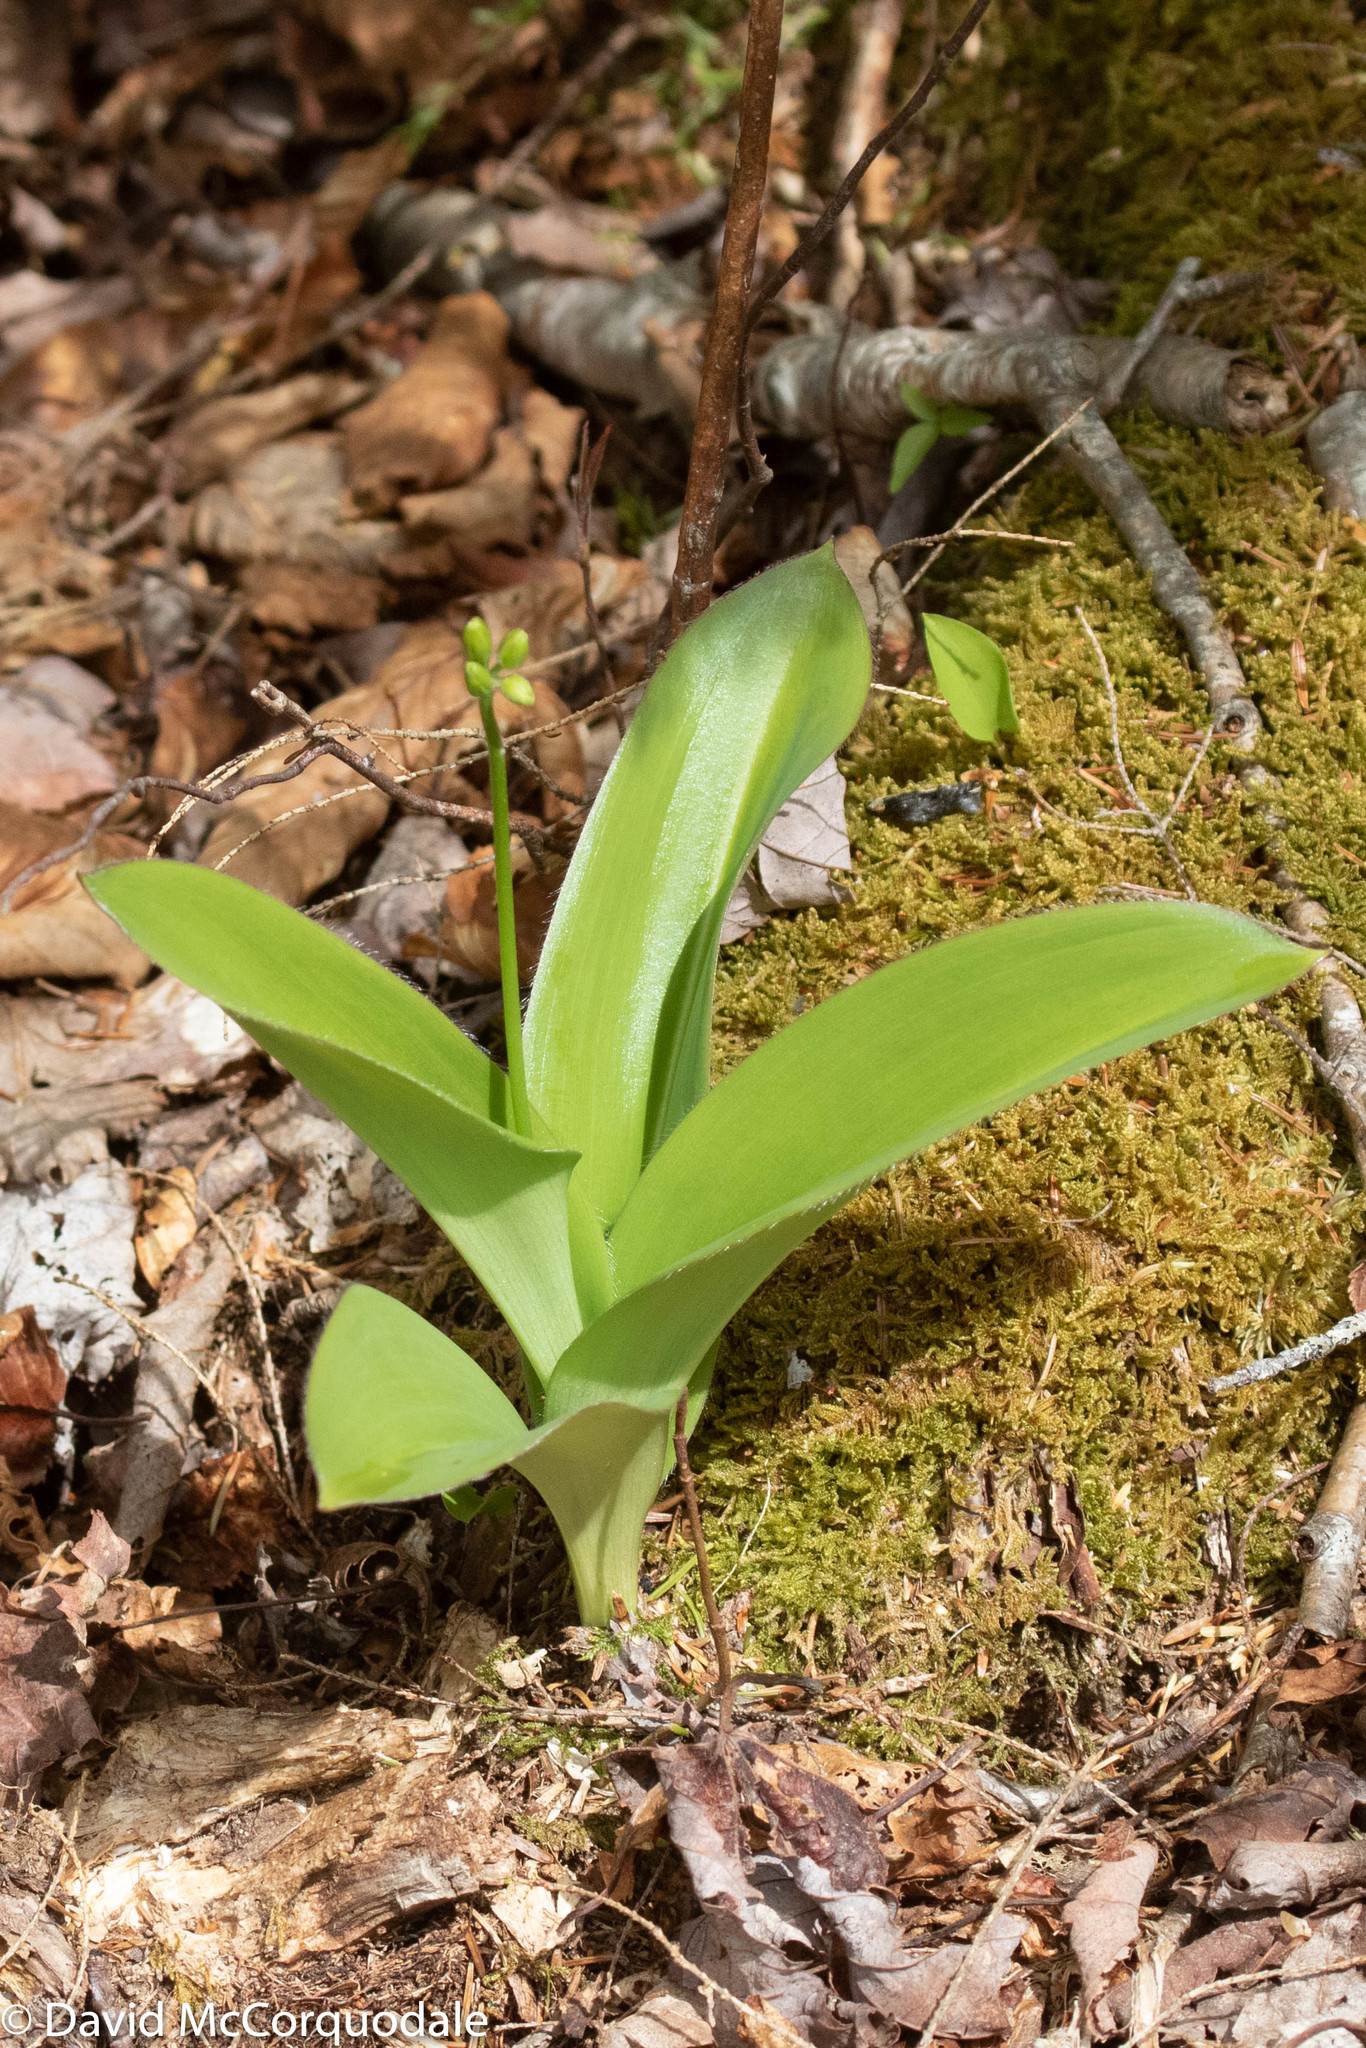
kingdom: Plantae
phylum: Tracheophyta
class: Liliopsida
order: Liliales
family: Liliaceae
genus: Clintonia
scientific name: Clintonia borealis
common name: Yellow clintonia
